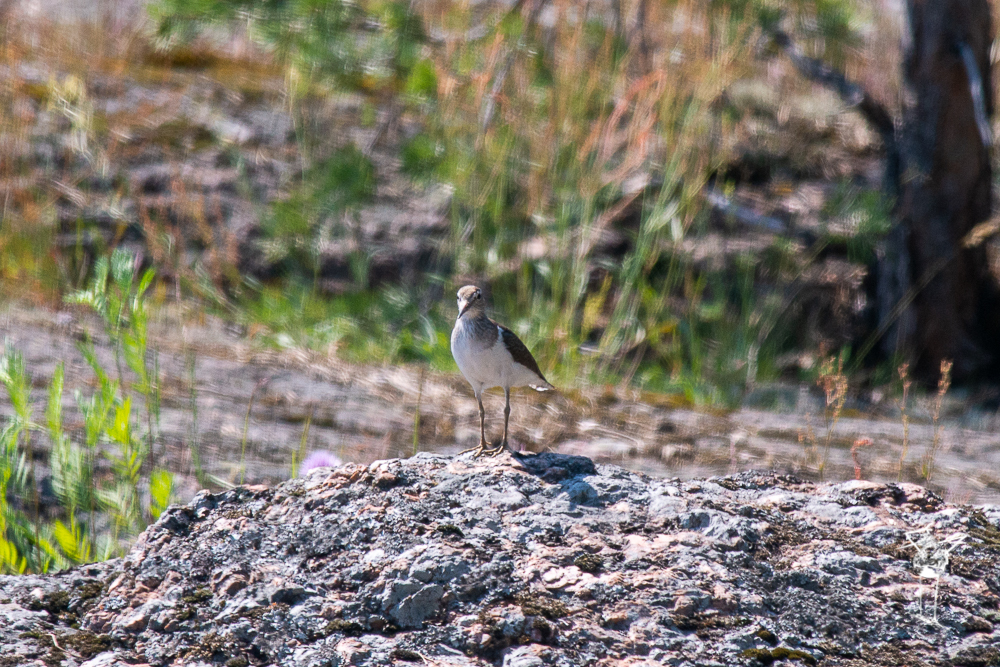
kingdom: Animalia
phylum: Chordata
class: Aves
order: Charadriiformes
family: Scolopacidae
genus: Actitis
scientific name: Actitis hypoleucos
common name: Common sandpiper
